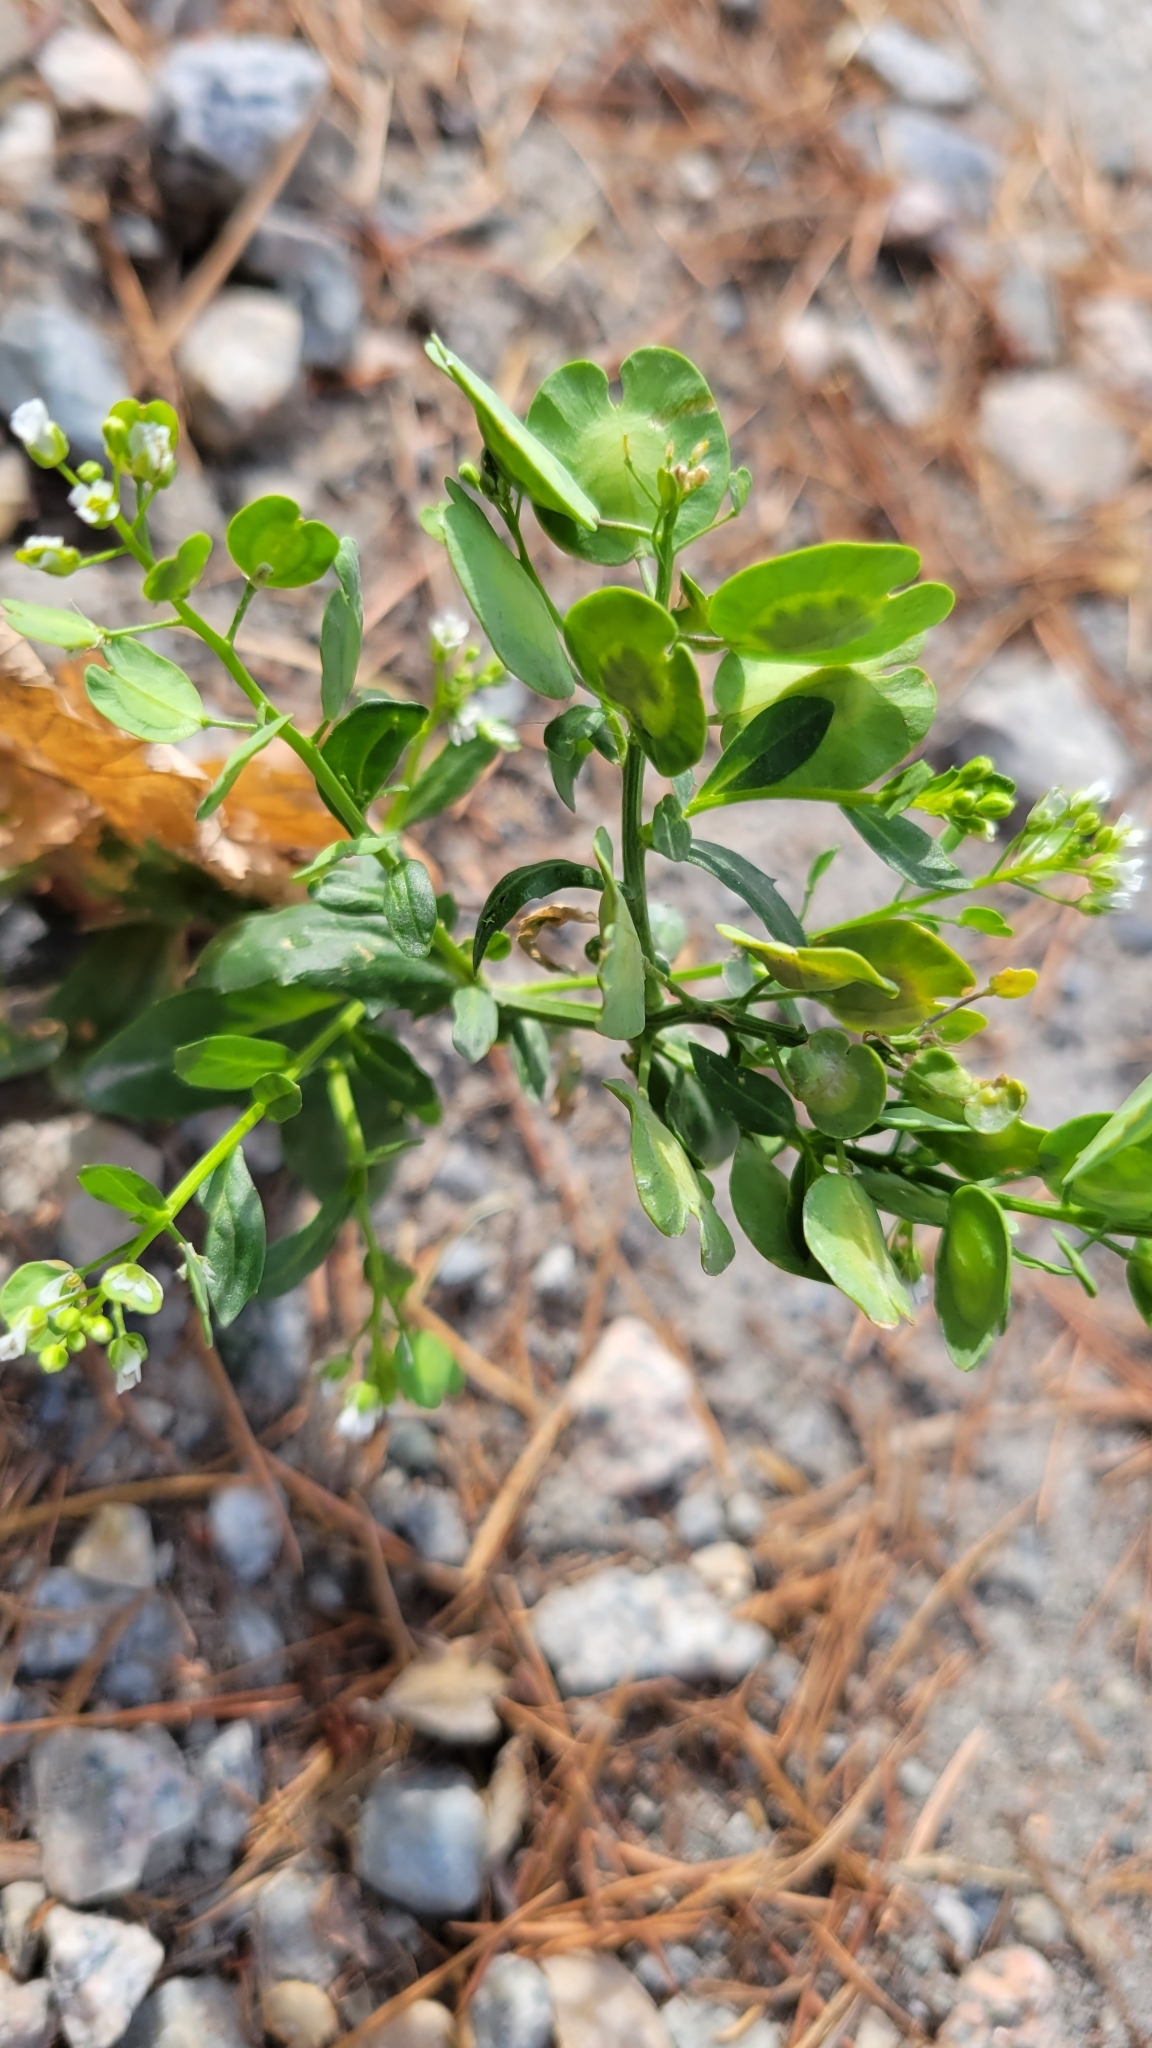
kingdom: Plantae
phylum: Tracheophyta
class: Magnoliopsida
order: Brassicales
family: Brassicaceae
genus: Thlaspi
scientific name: Thlaspi arvense
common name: Field pennycress
